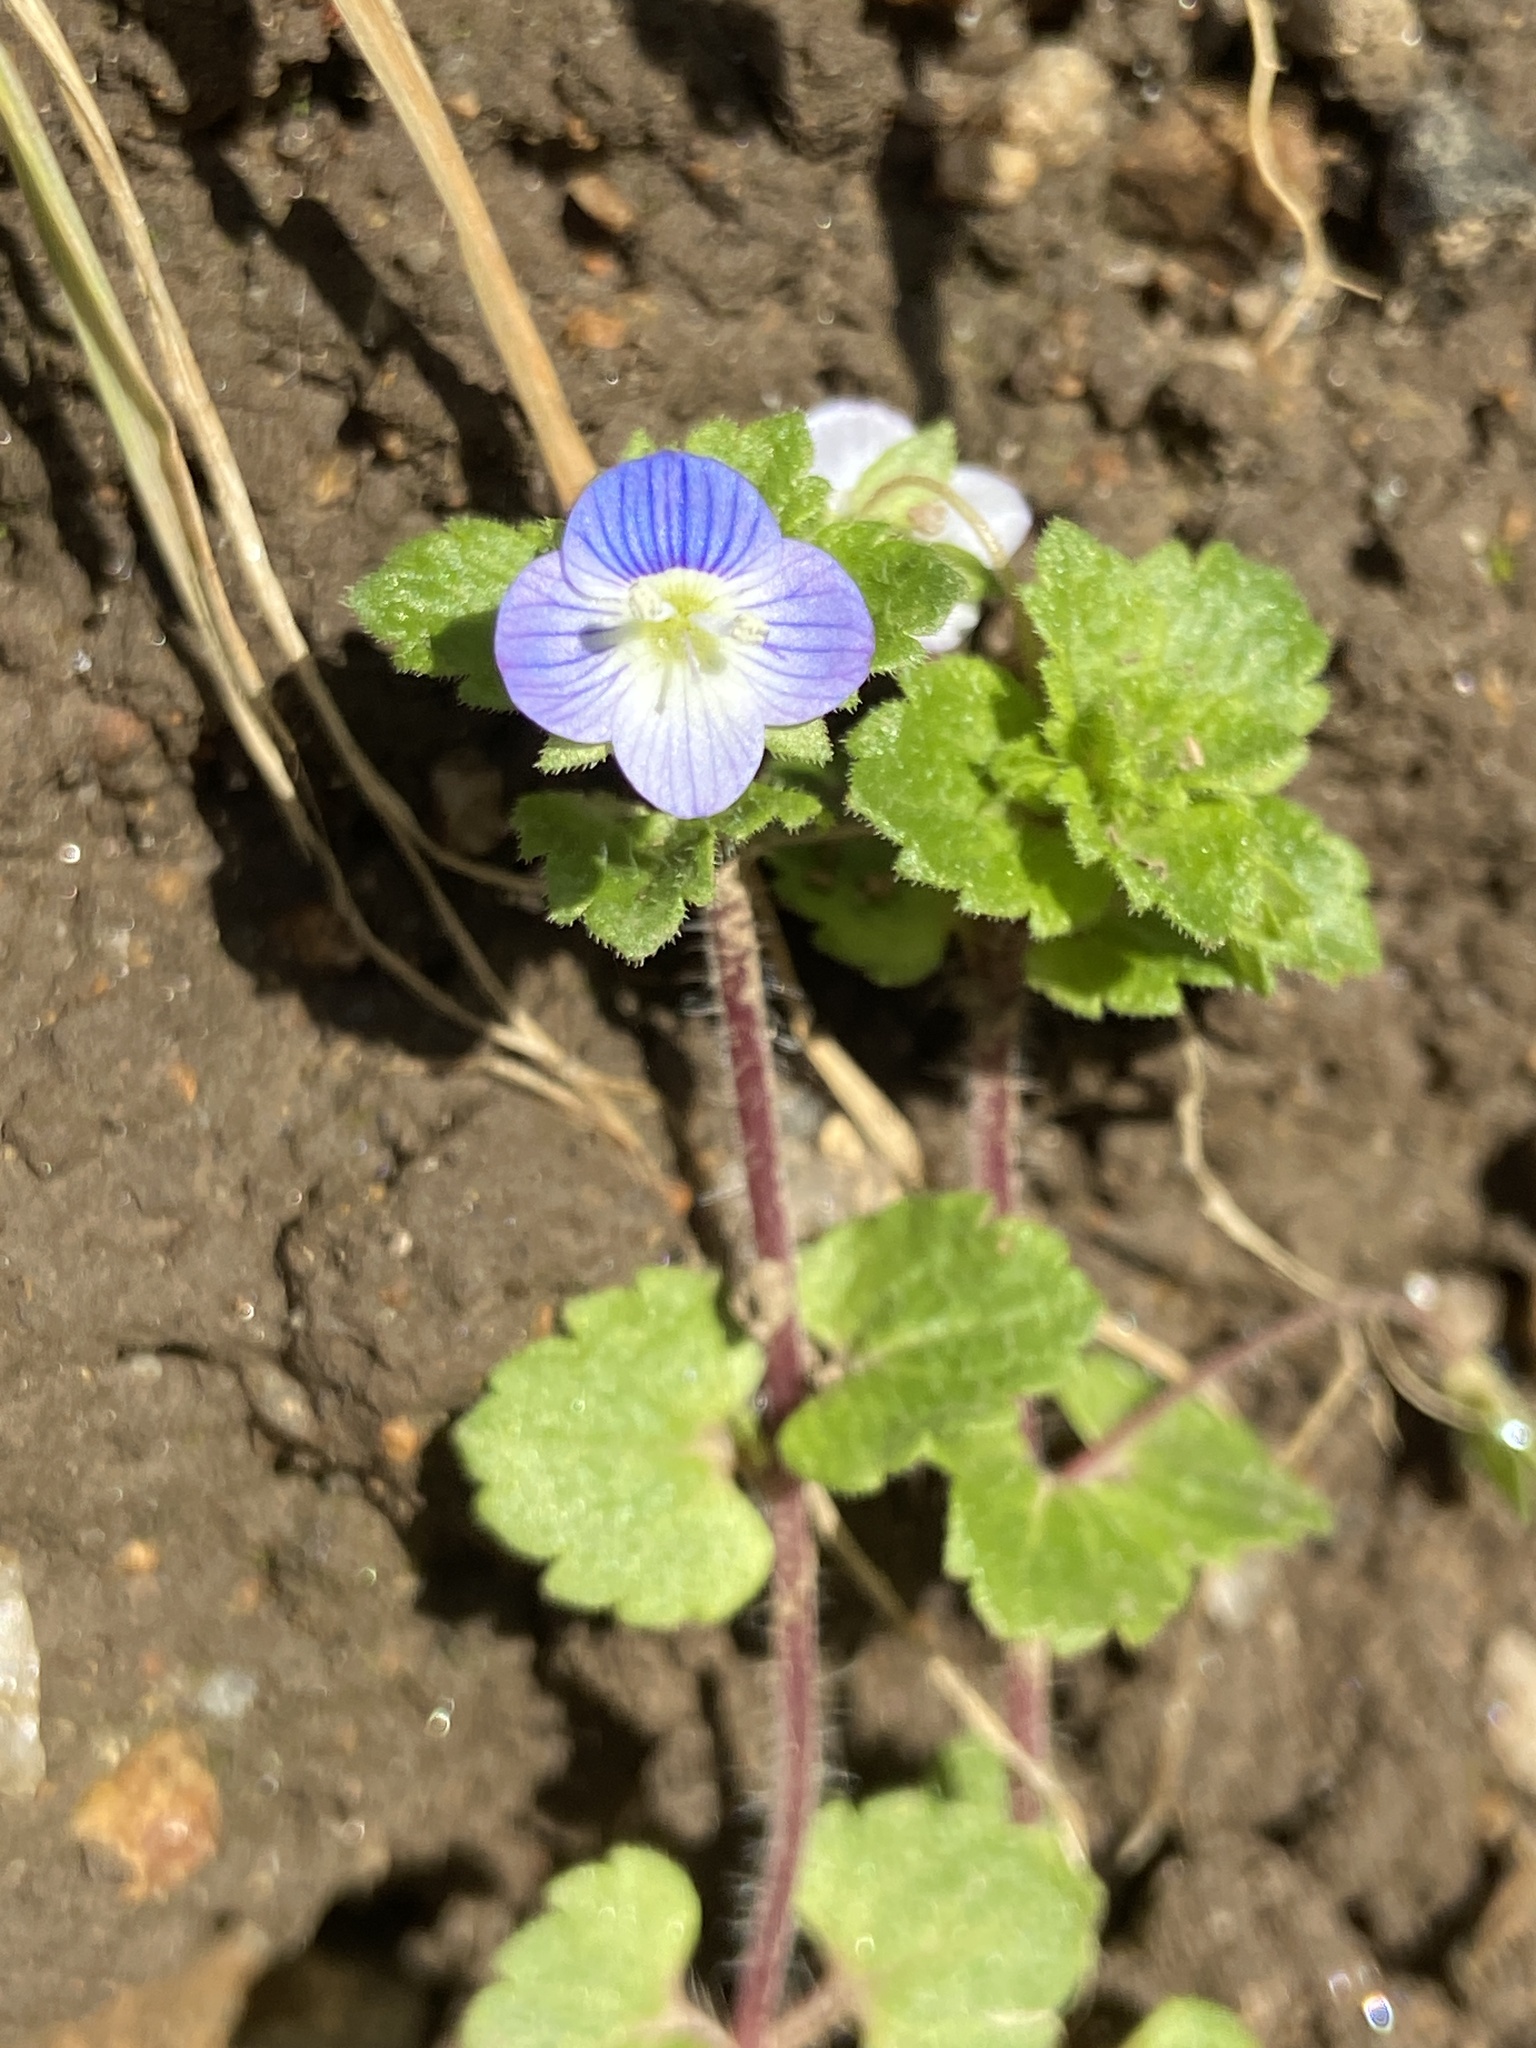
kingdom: Plantae
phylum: Tracheophyta
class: Magnoliopsida
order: Lamiales
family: Plantaginaceae
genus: Veronica
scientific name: Veronica persica
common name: Common field-speedwell
